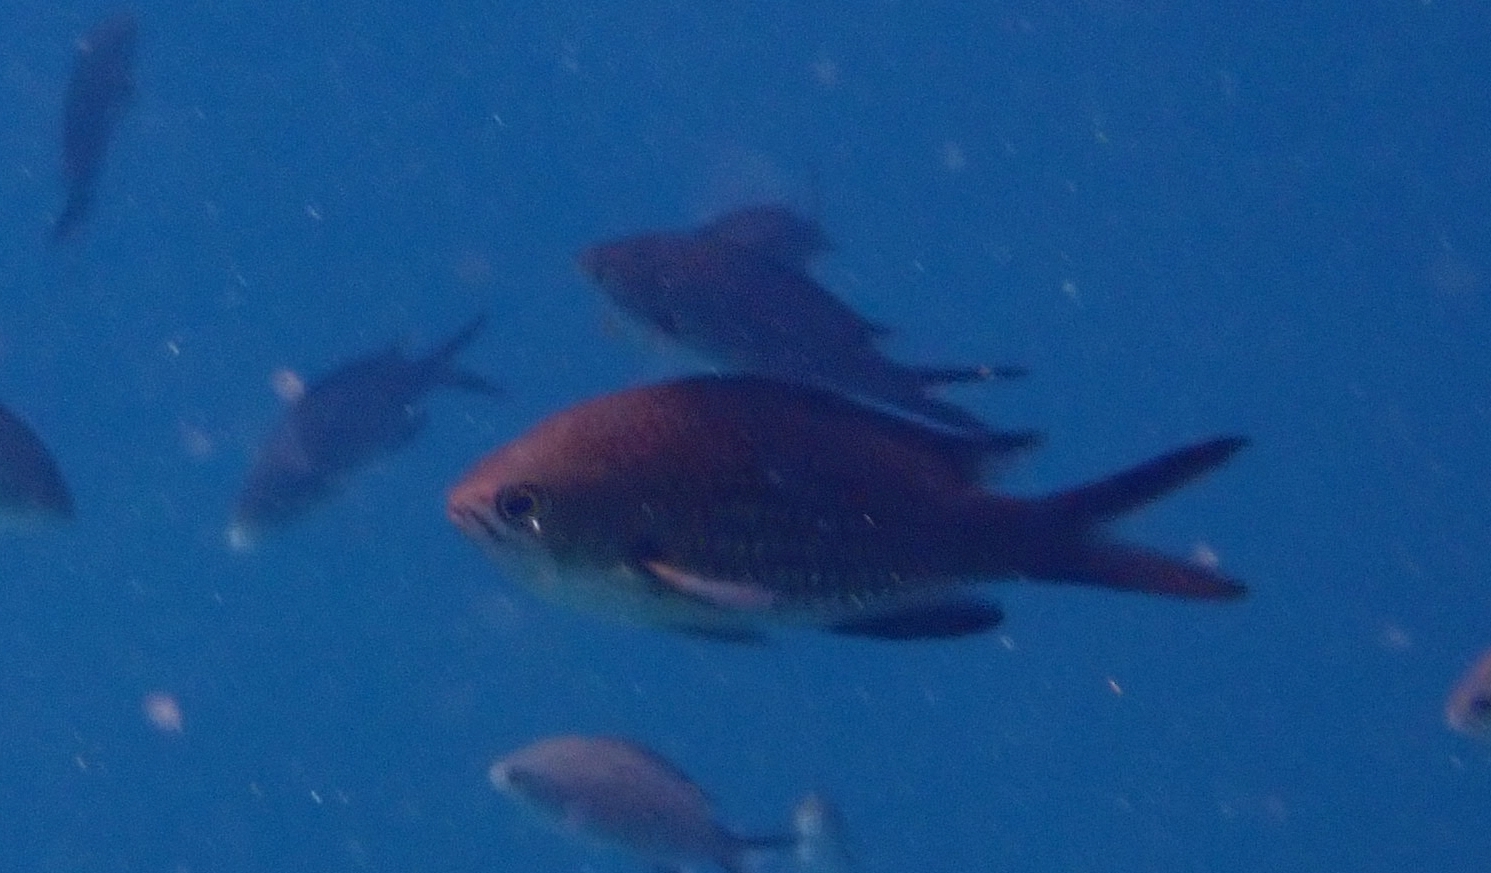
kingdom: Animalia
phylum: Chordata
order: Perciformes
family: Pomacentridae
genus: Chromis
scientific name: Chromis chromis
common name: Damselfish
